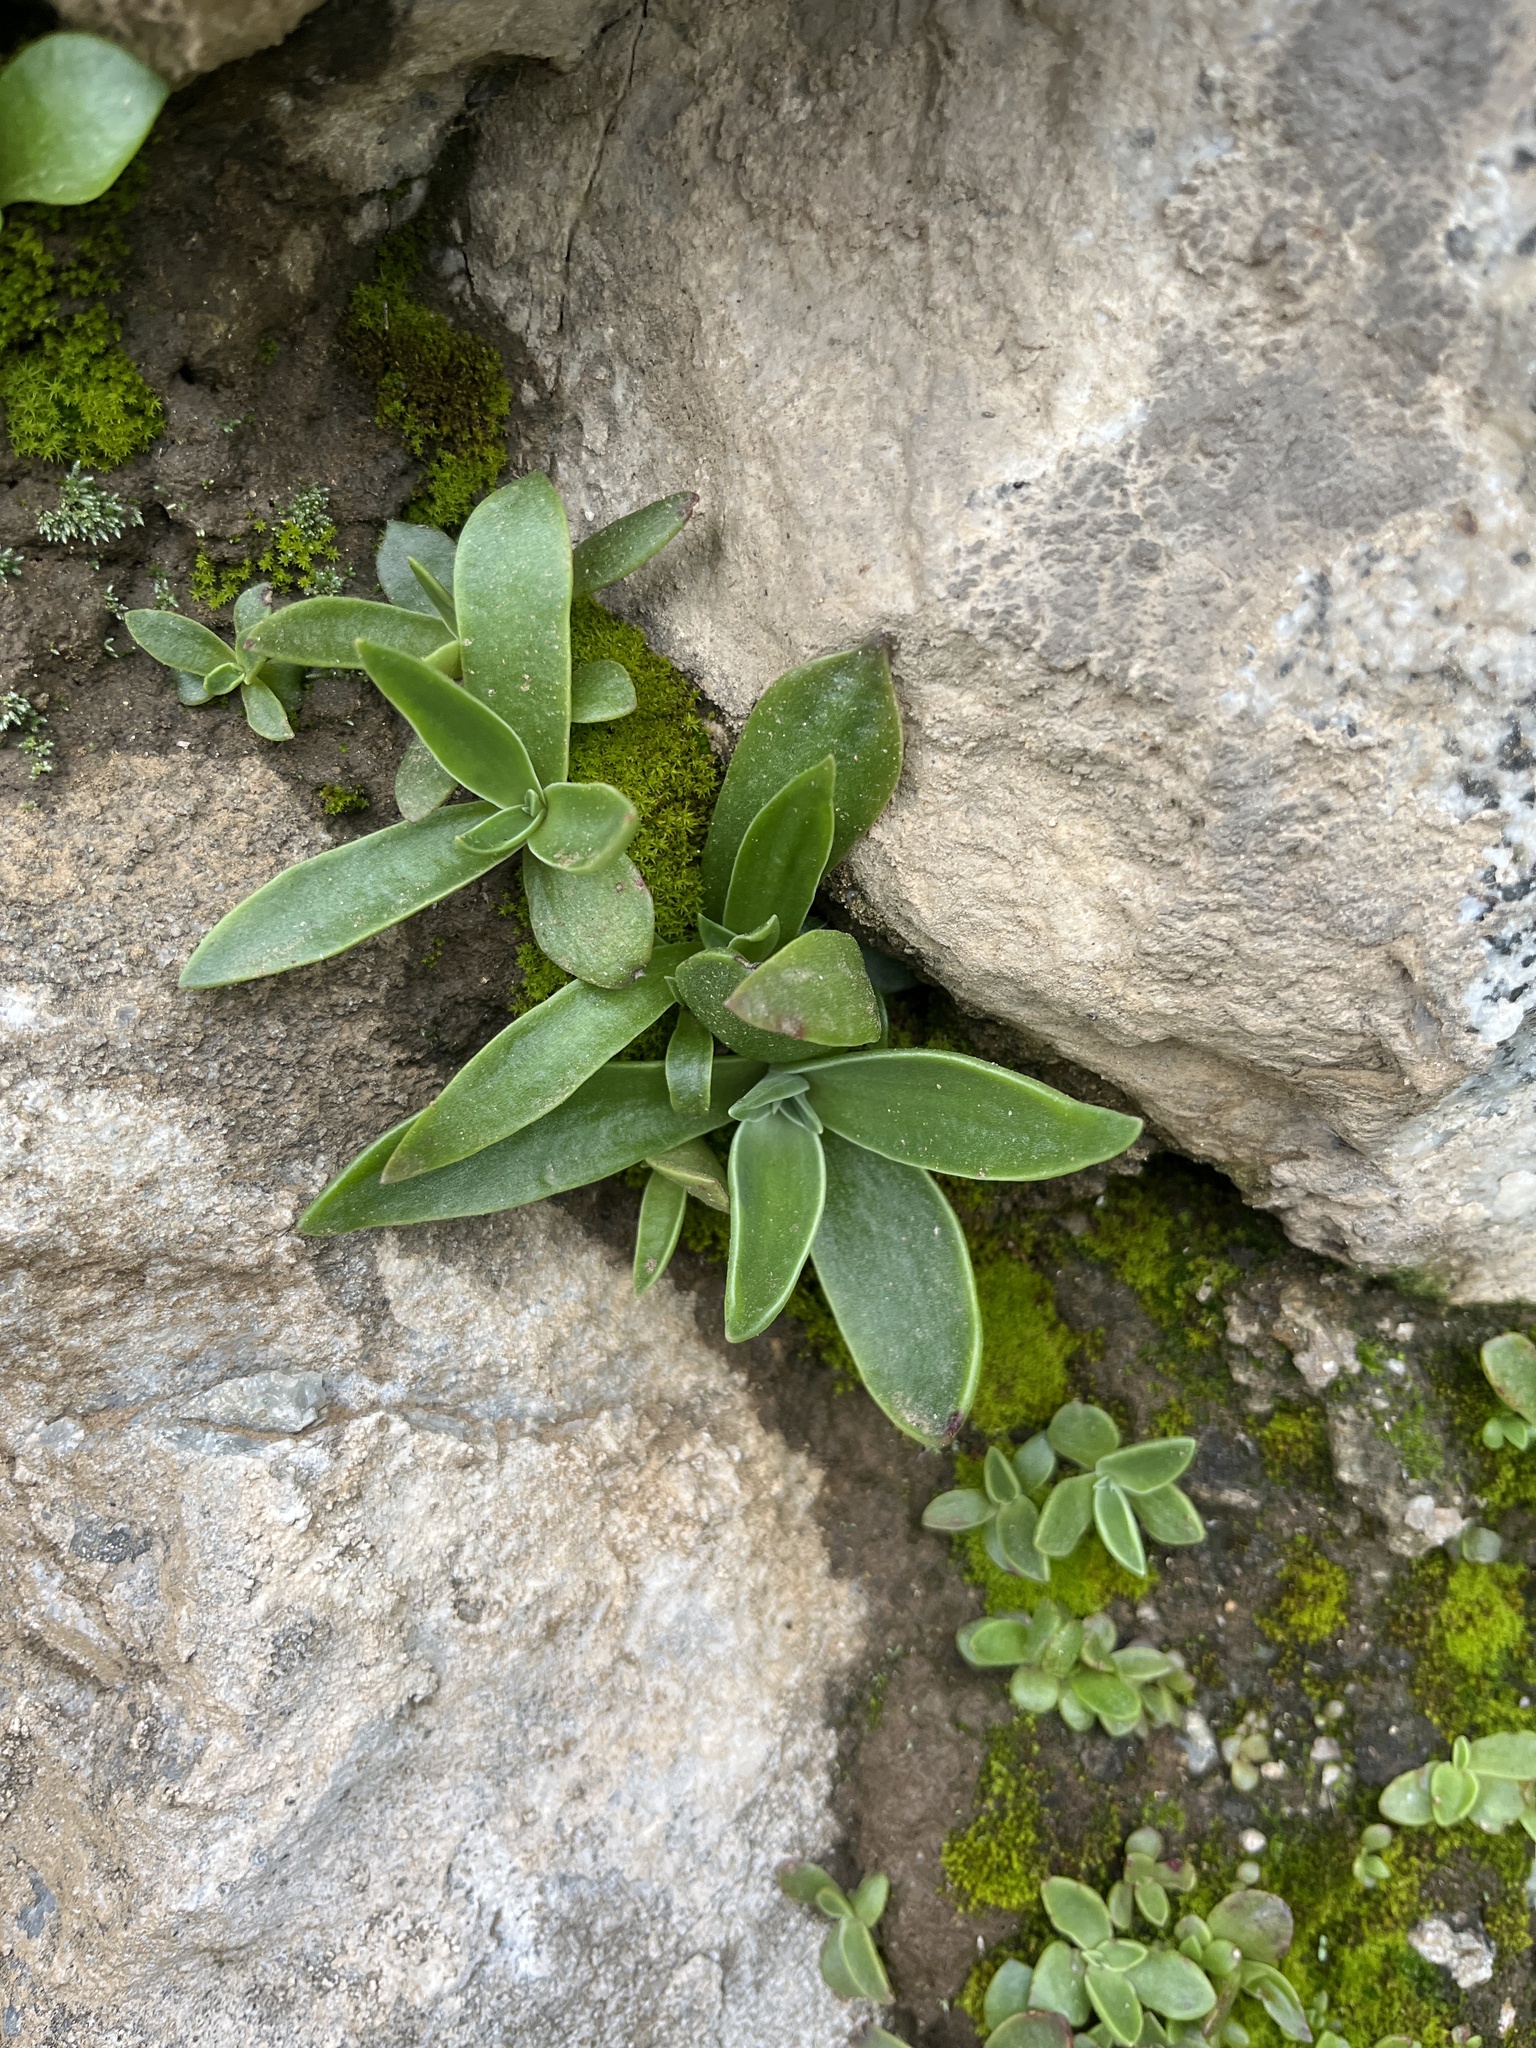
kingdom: Plantae
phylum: Tracheophyta
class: Magnoliopsida
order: Saxifragales
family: Crassulaceae
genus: Dudleya
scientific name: Dudleya lanceolata
